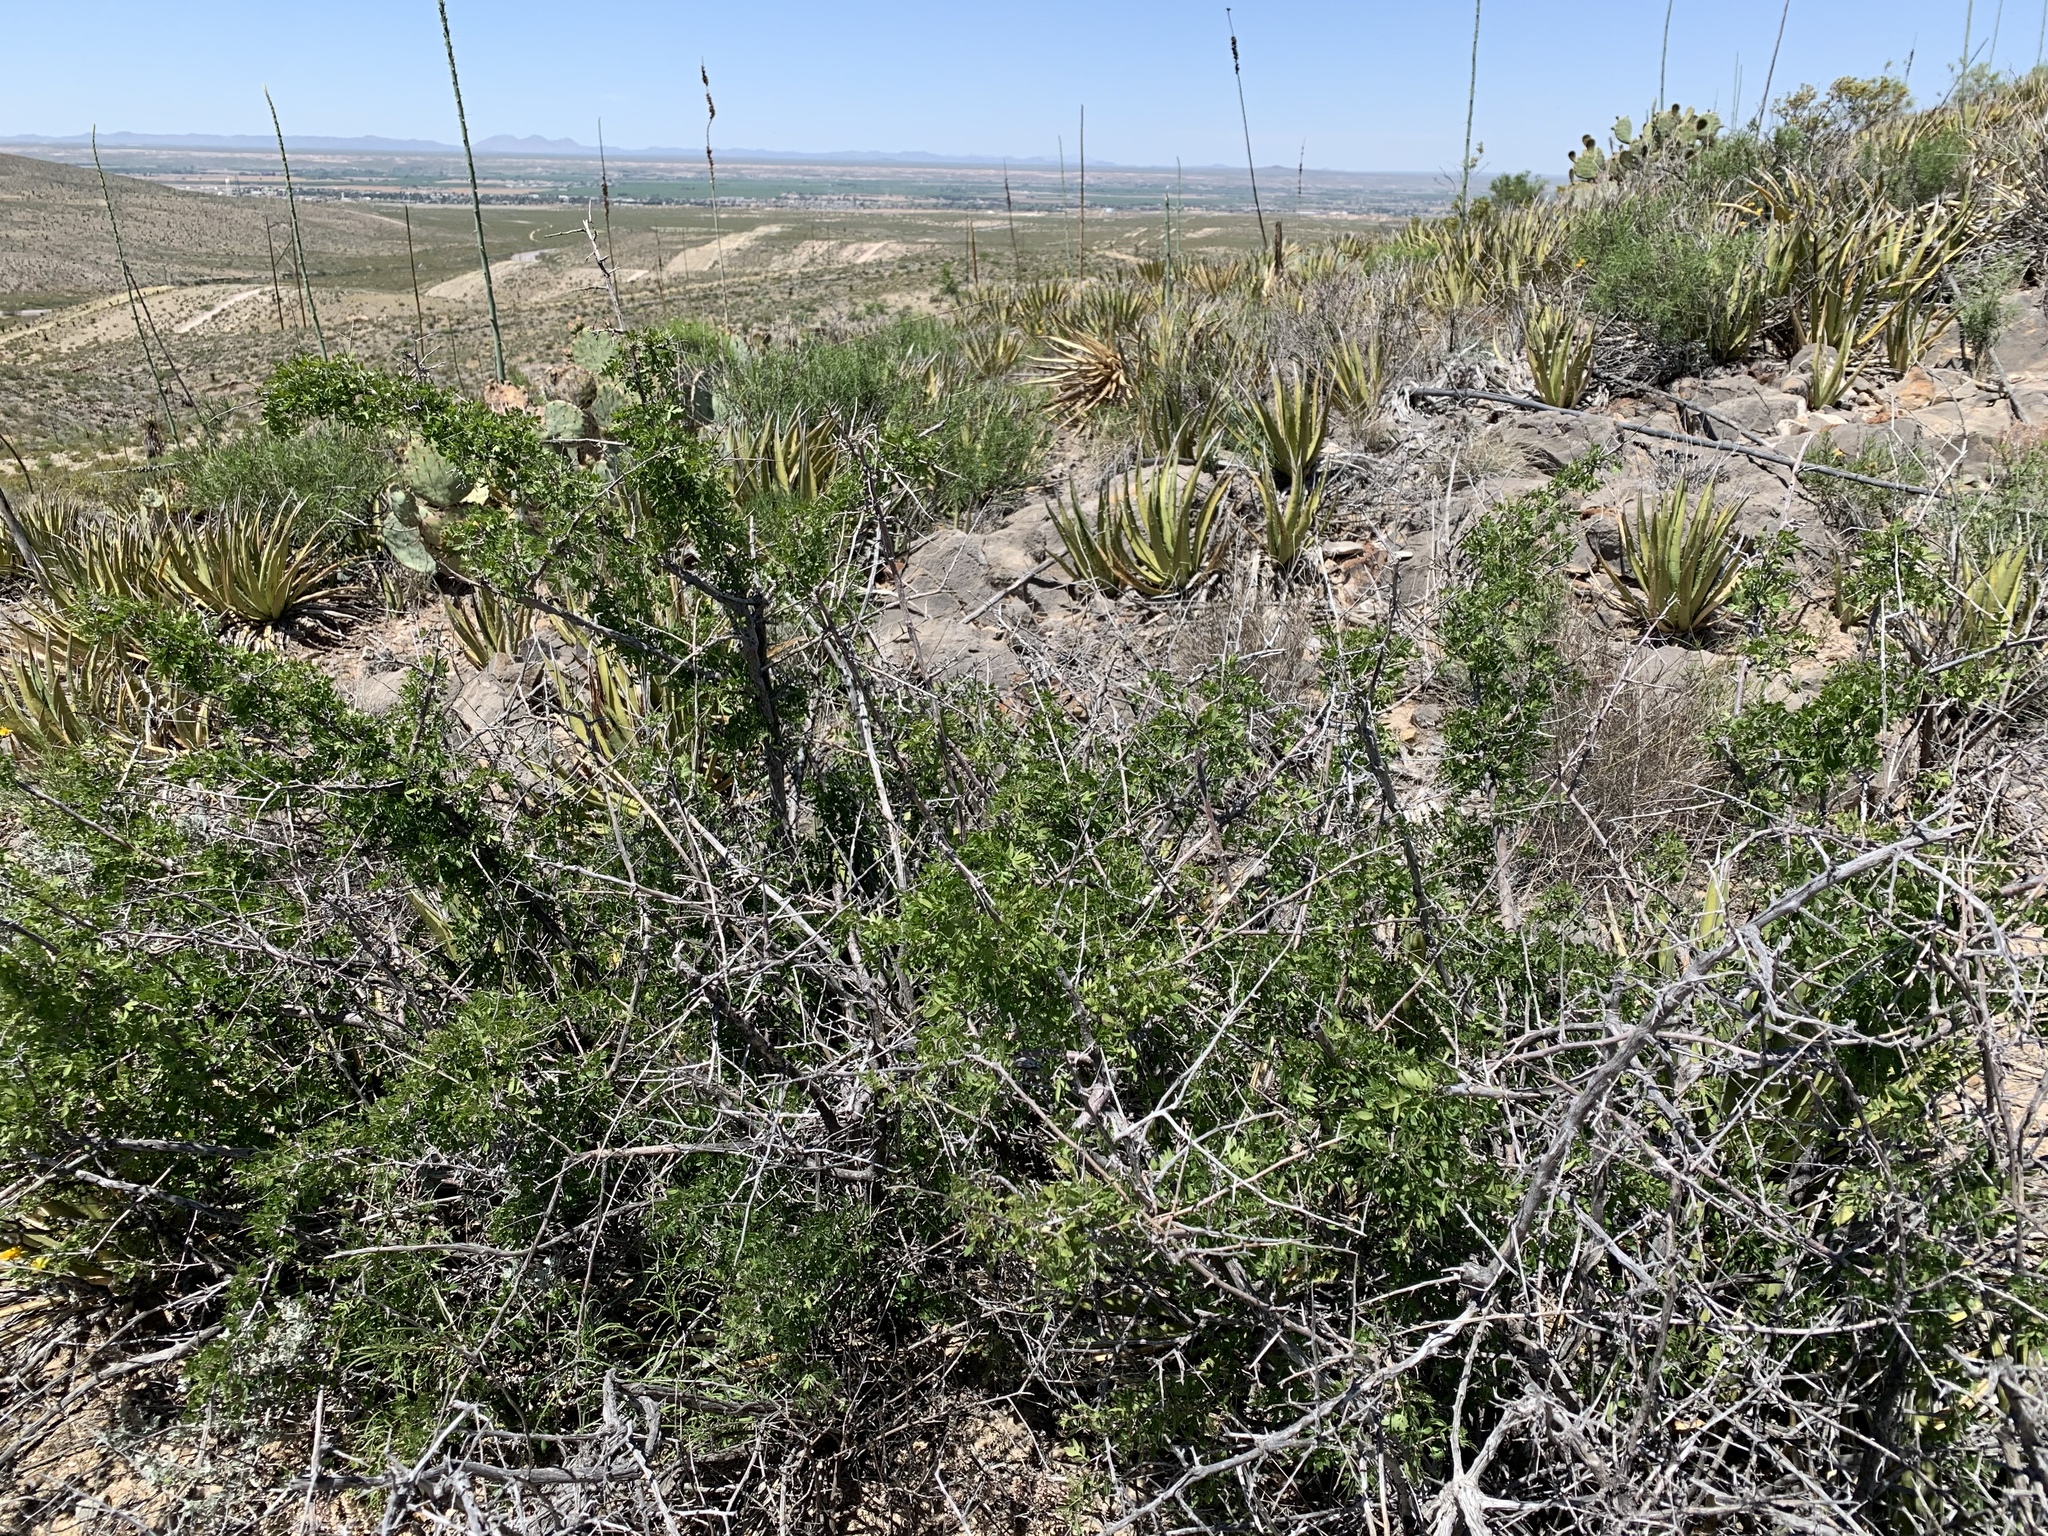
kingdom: Plantae
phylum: Tracheophyta
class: Magnoliopsida
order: Sapindales
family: Anacardiaceae
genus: Rhus
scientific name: Rhus microphylla
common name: Desert sumac
